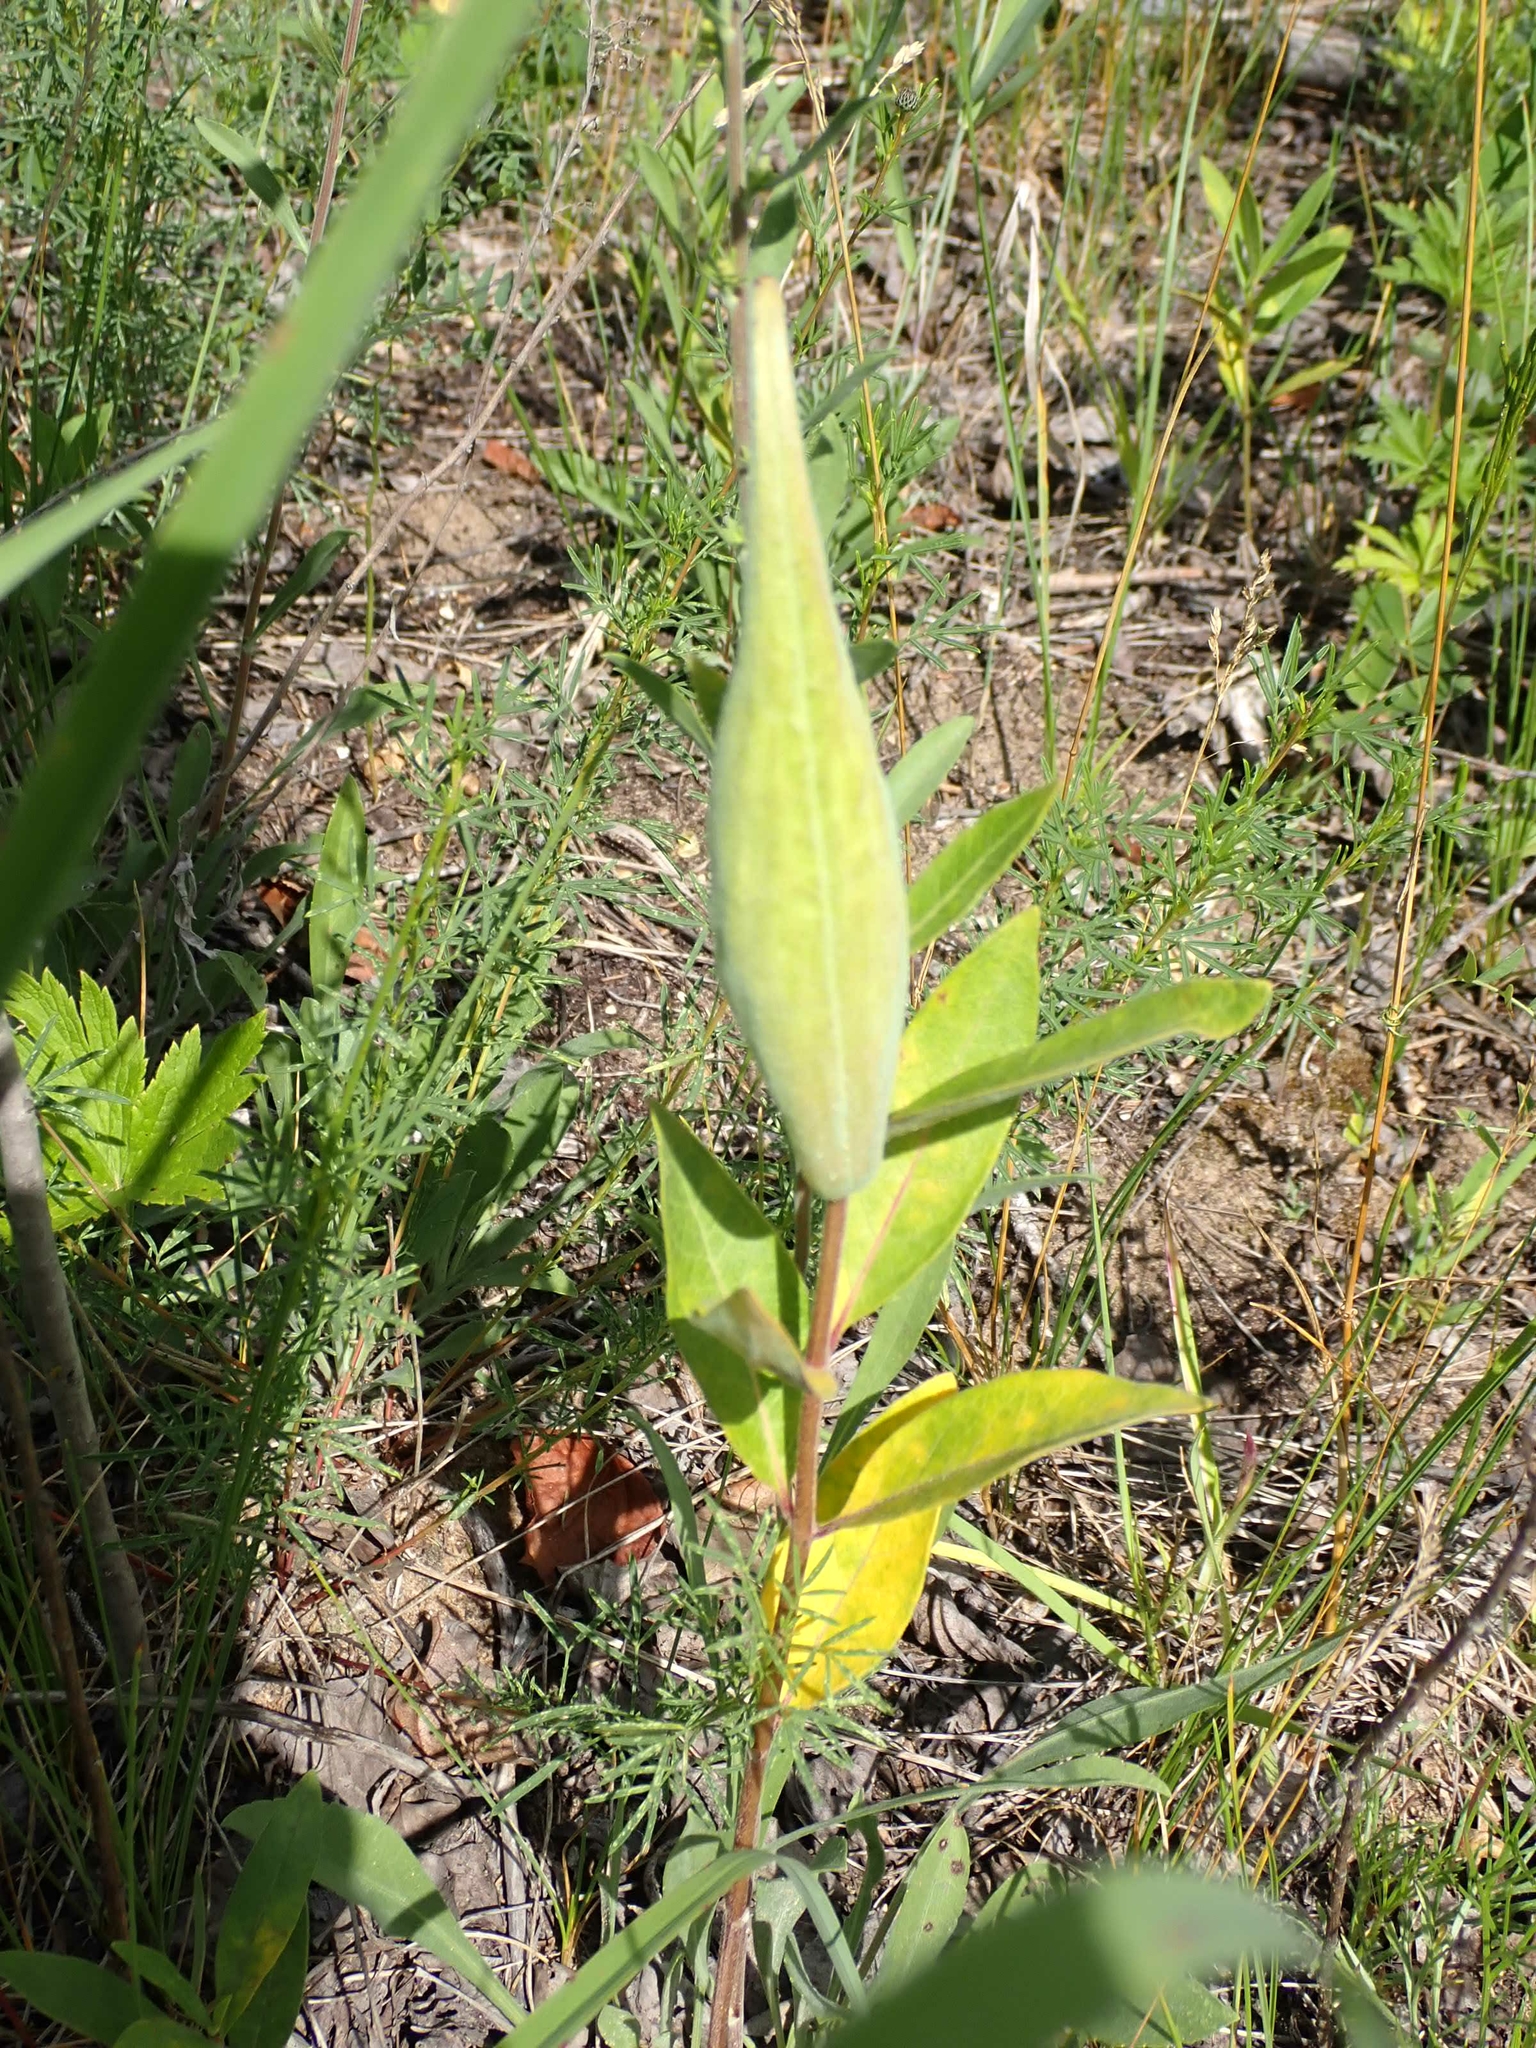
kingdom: Plantae
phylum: Tracheophyta
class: Magnoliopsida
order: Gentianales
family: Apocynaceae
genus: Asclepias
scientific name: Asclepias ovalifolia
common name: Dwarf milkweed
